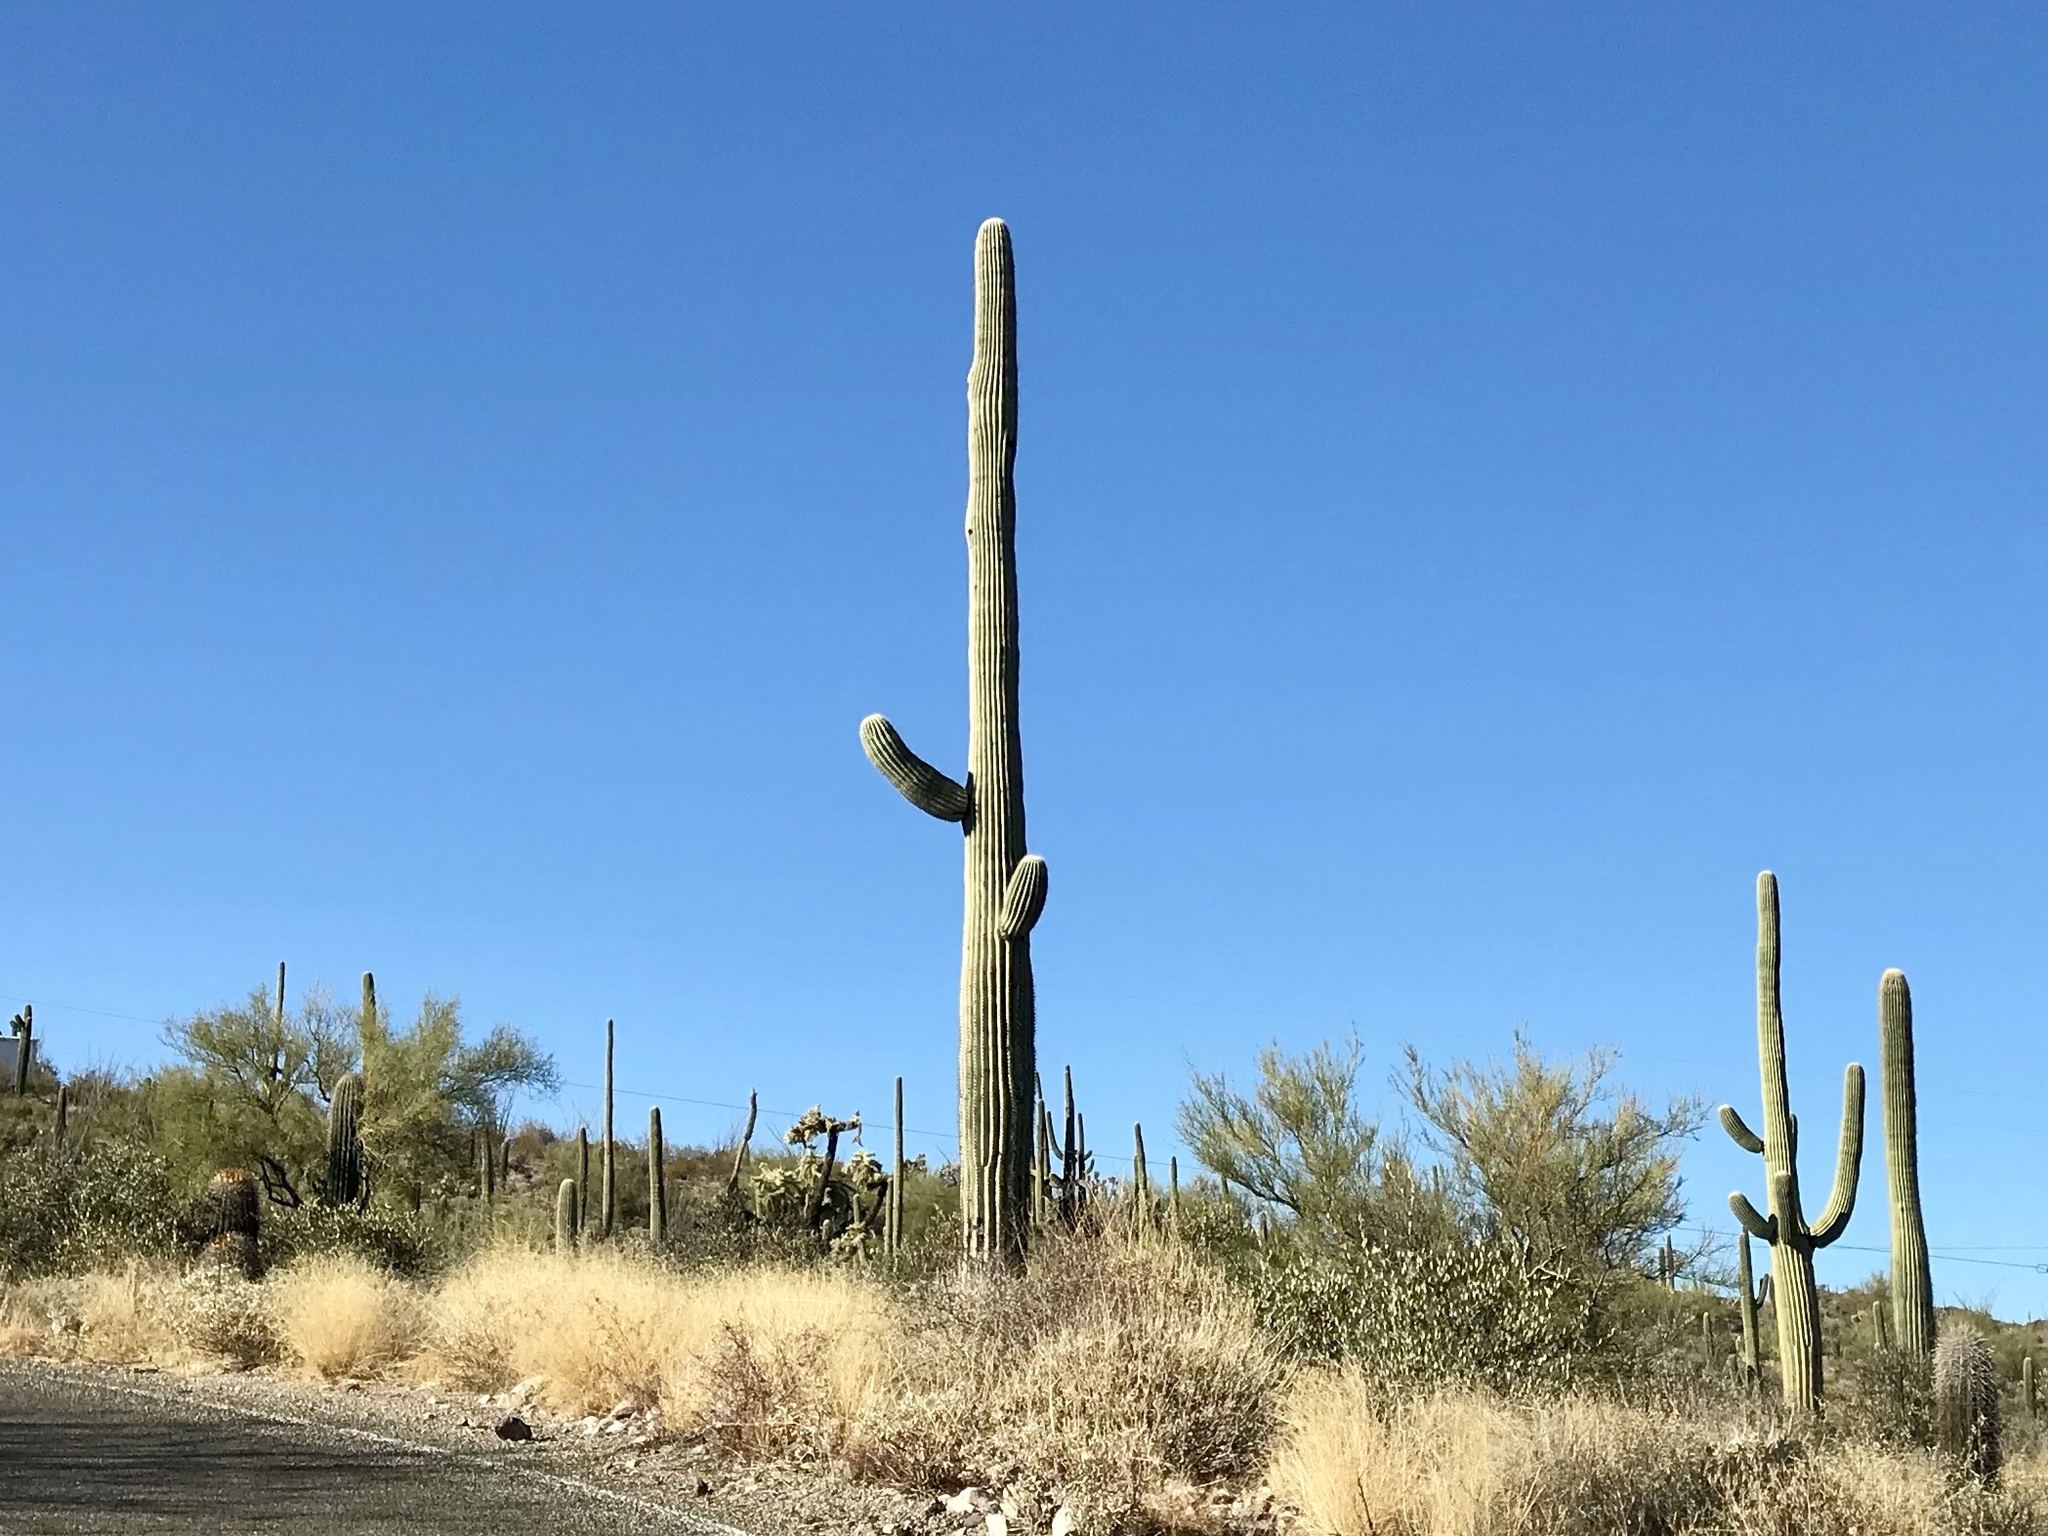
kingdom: Plantae
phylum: Tracheophyta
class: Magnoliopsida
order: Caryophyllales
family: Cactaceae
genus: Carnegiea
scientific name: Carnegiea gigantea
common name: Saguaro
